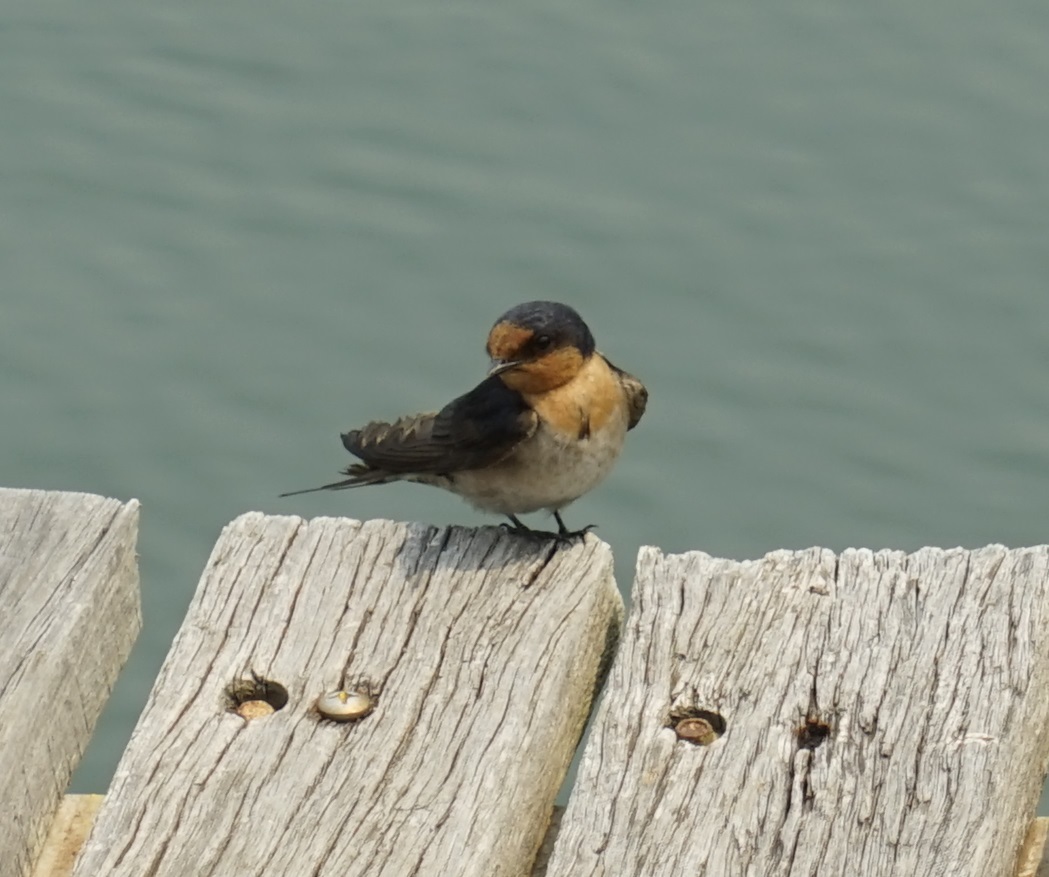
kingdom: Animalia
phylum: Chordata
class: Aves
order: Passeriformes
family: Hirundinidae
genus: Hirundo
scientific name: Hirundo neoxena
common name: Welcome swallow
